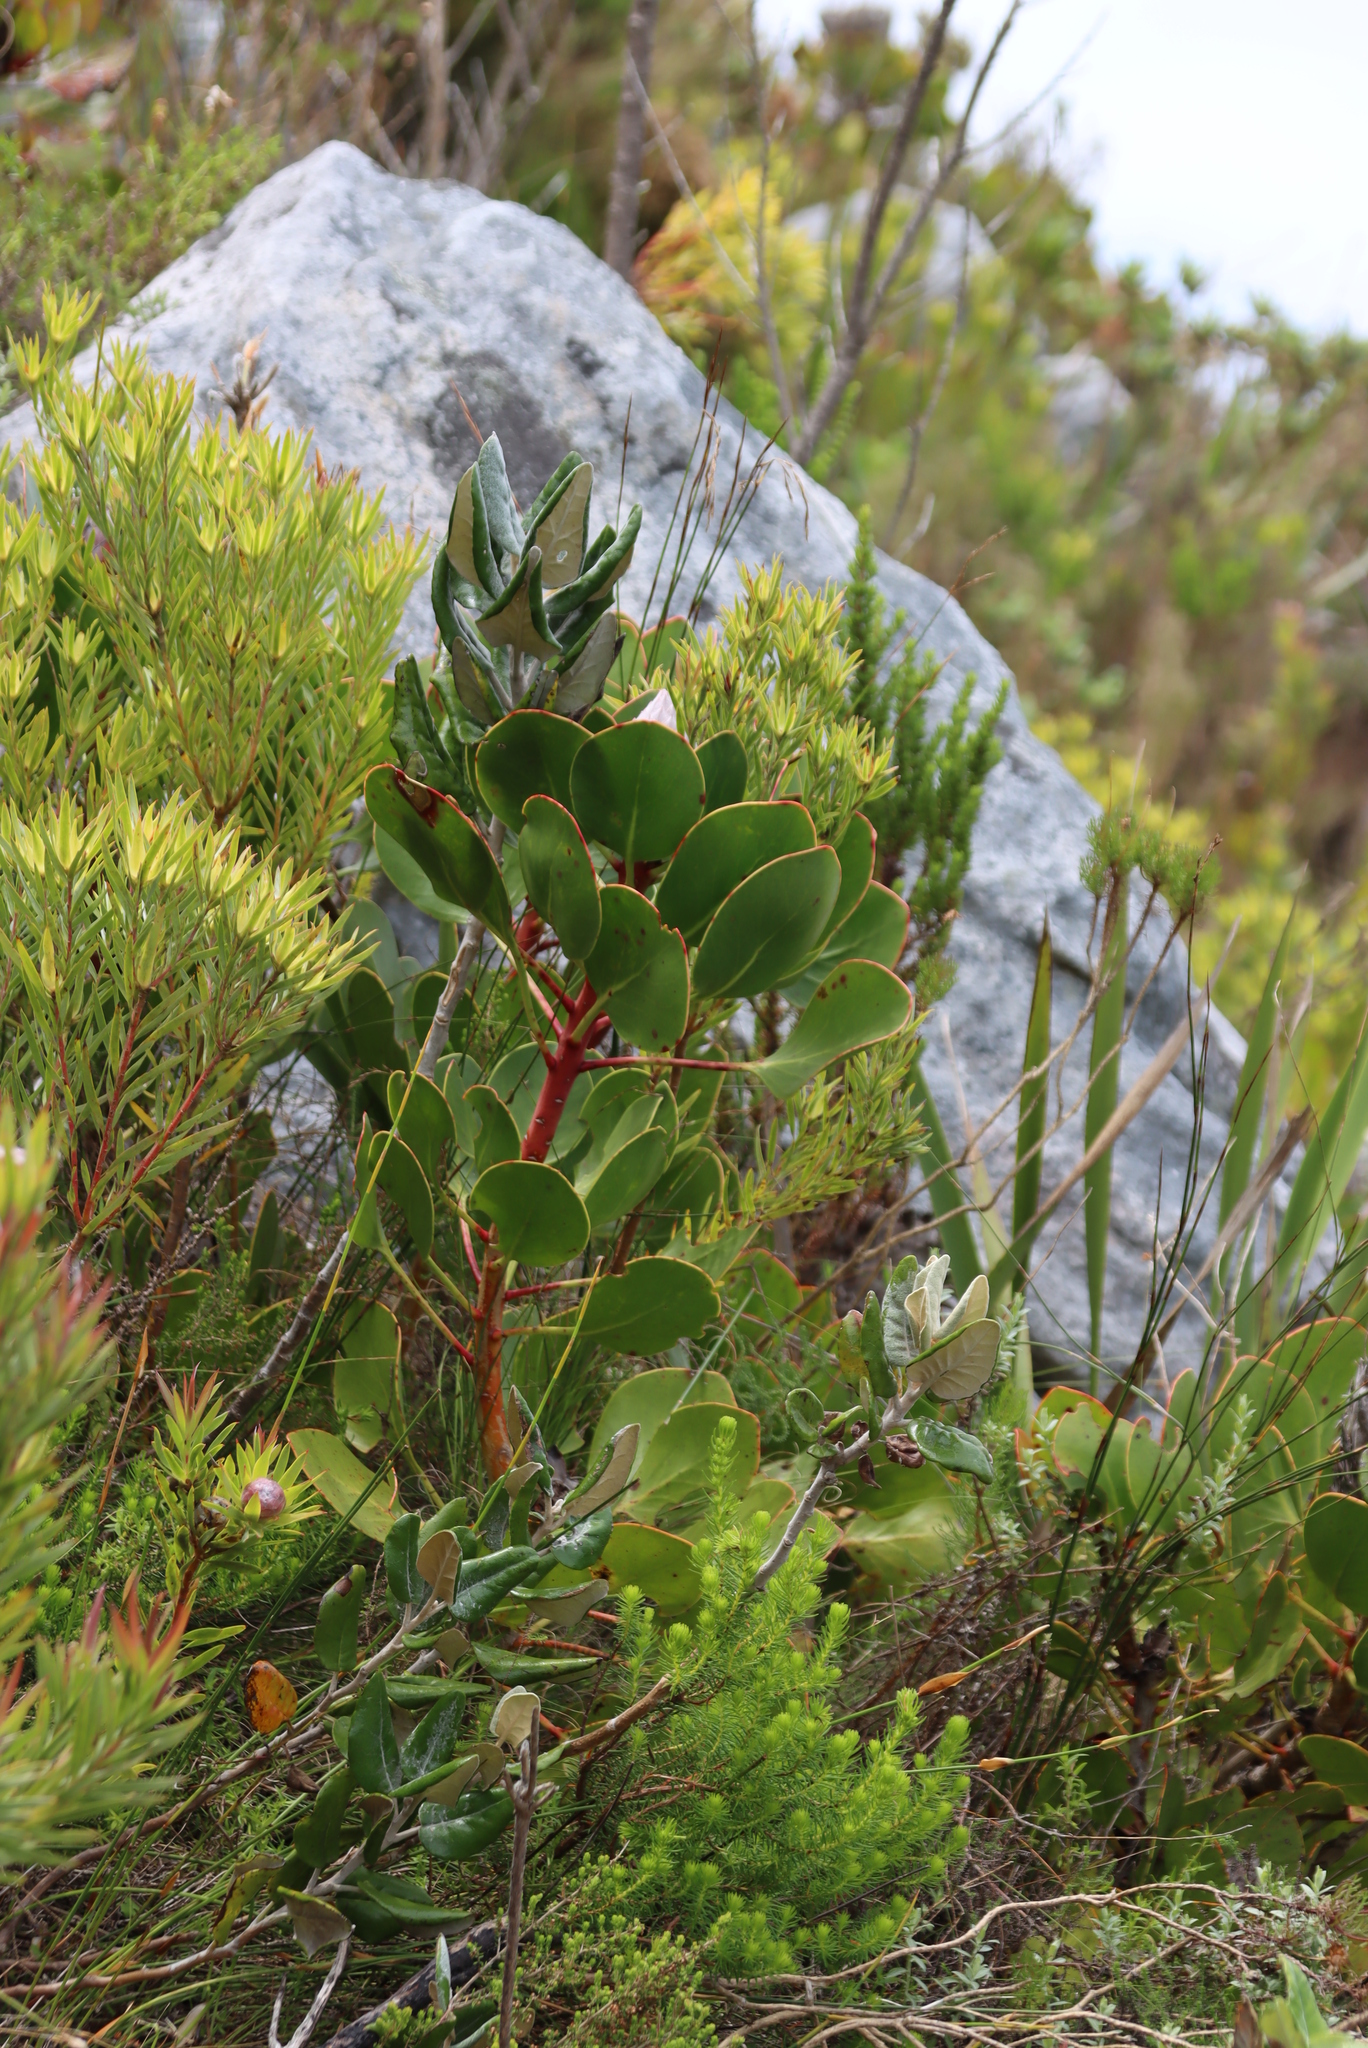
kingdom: Plantae
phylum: Tracheophyta
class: Magnoliopsida
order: Proteales
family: Proteaceae
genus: Protea
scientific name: Protea cynaroides
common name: King protea
